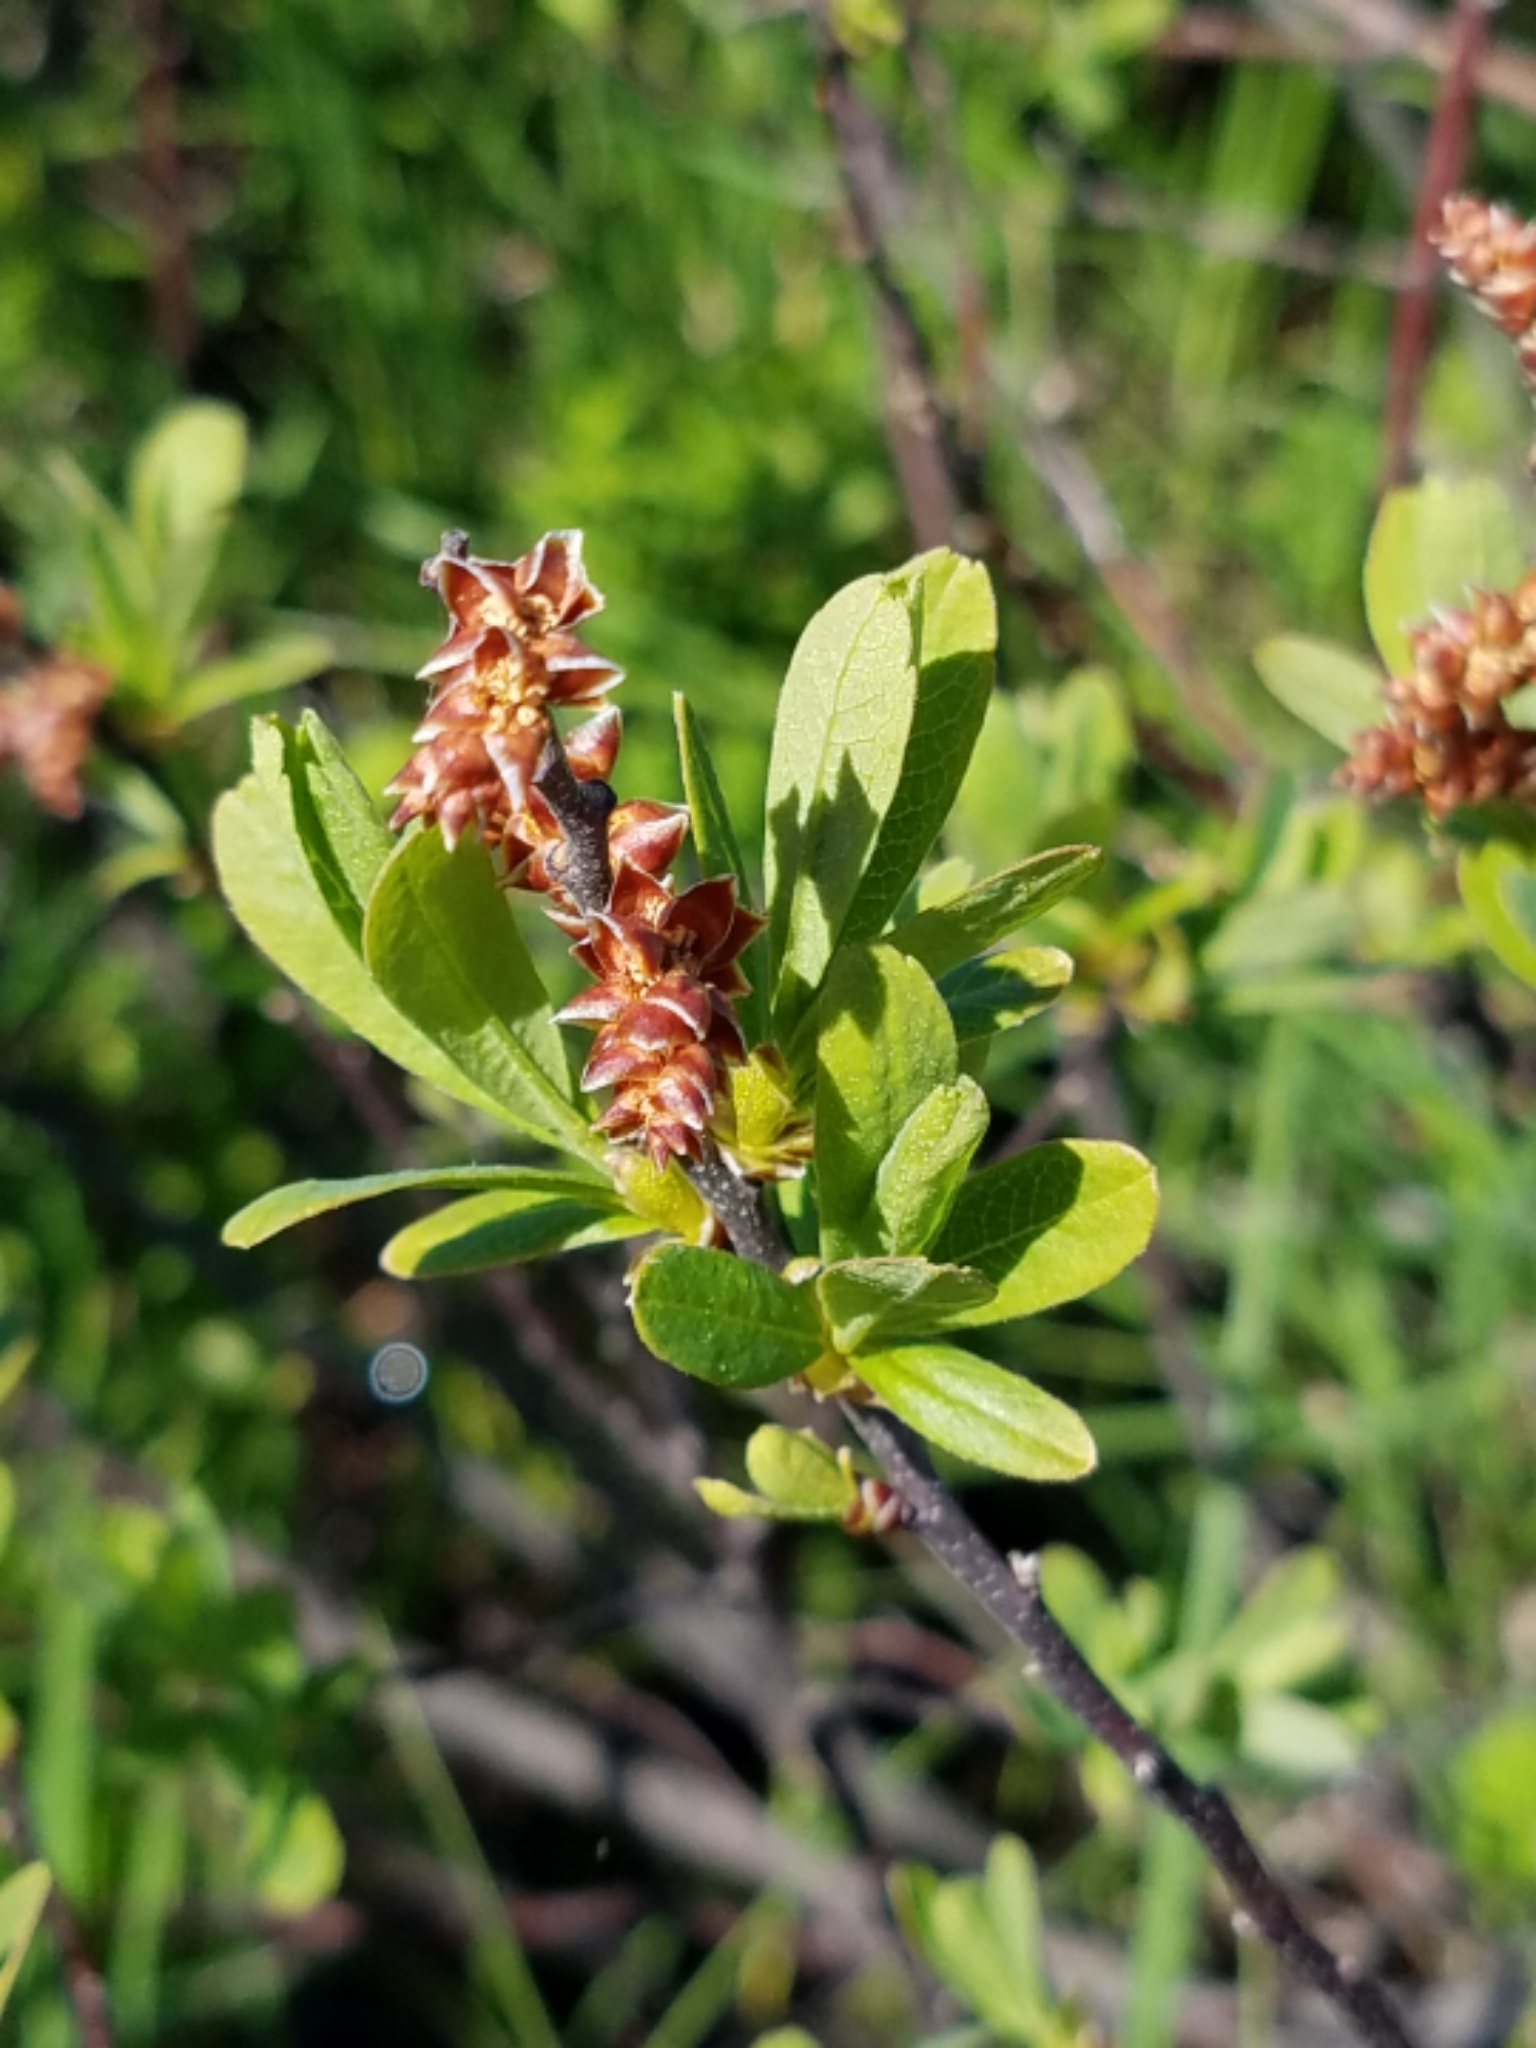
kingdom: Plantae
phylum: Tracheophyta
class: Magnoliopsida
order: Fagales
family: Myricaceae
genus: Myrica
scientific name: Myrica gale
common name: Sweet gale
